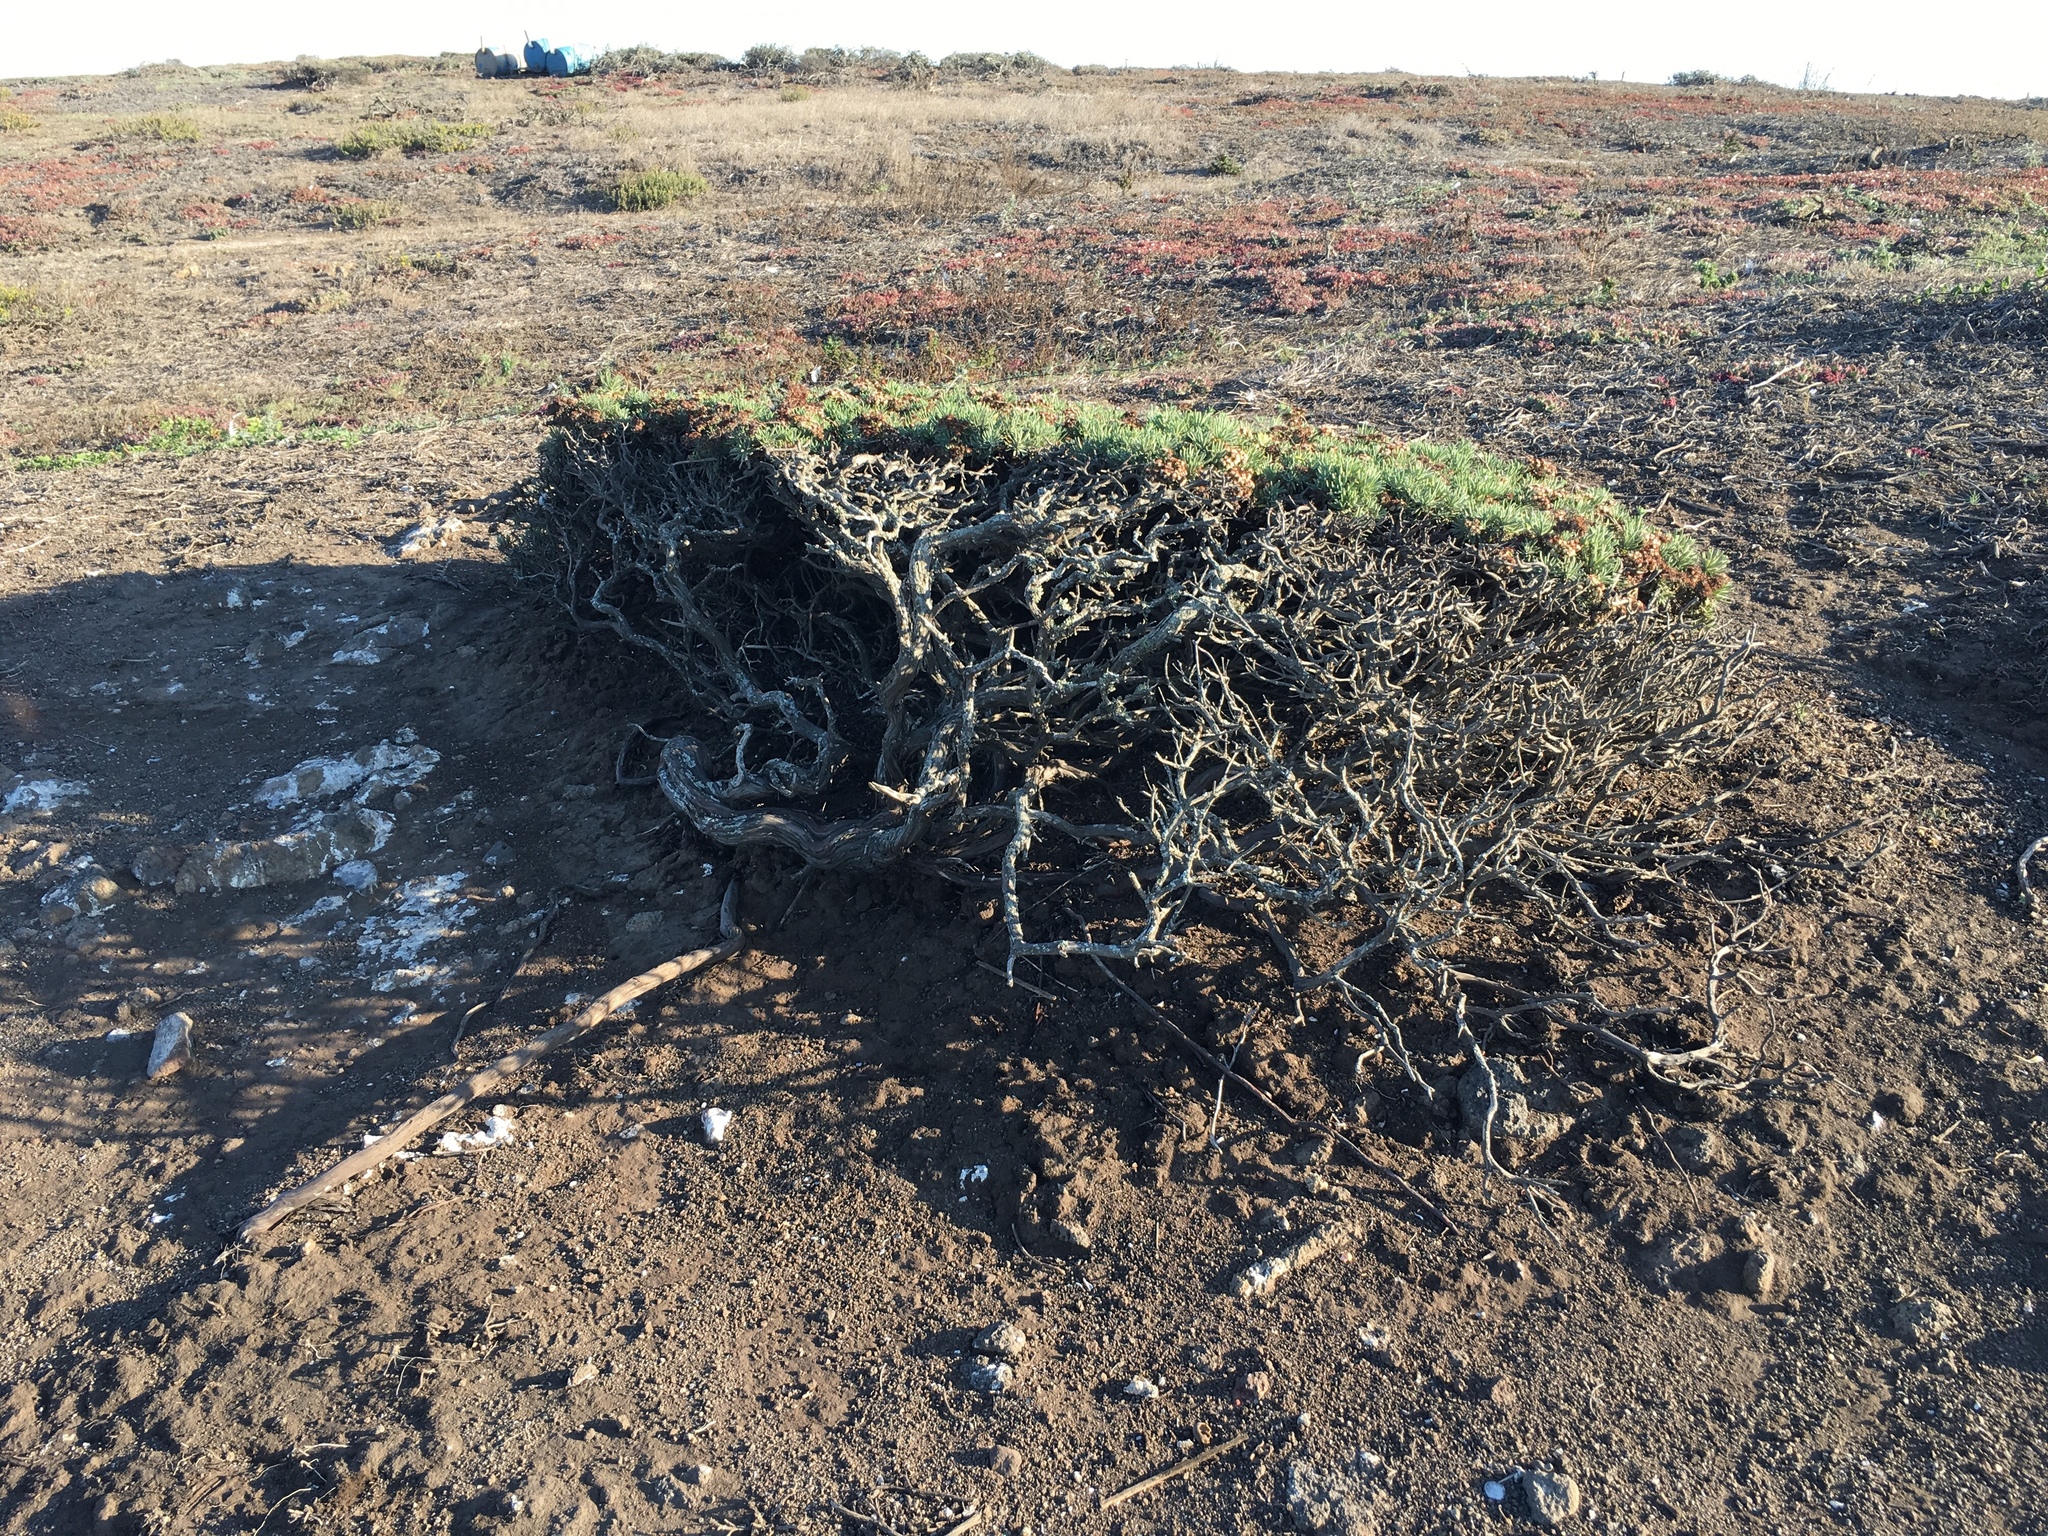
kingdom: Plantae
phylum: Tracheophyta
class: Magnoliopsida
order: Caryophyllales
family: Polygonaceae
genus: Eriogonum
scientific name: Eriogonum arborescens
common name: Island buckwheat
